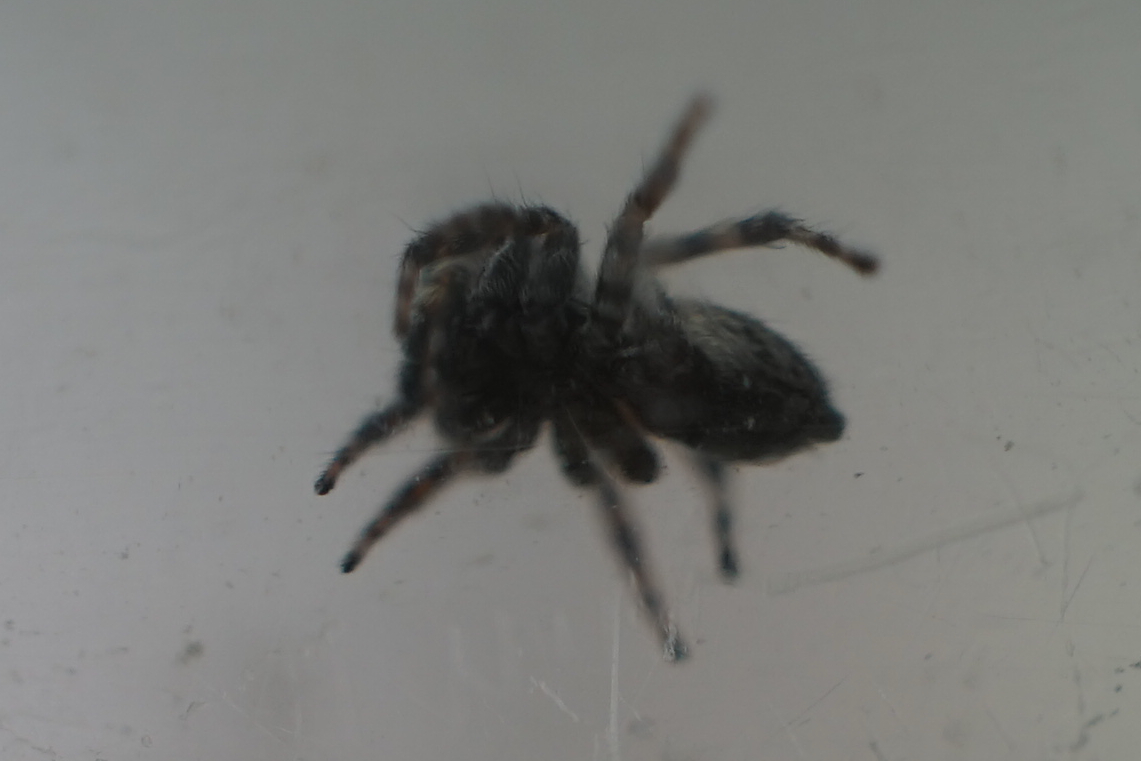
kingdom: Animalia
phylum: Arthropoda
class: Arachnida
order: Araneae
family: Salticidae
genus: Attulus
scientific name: Attulus fasciger
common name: Asiatic wall jumping spider
